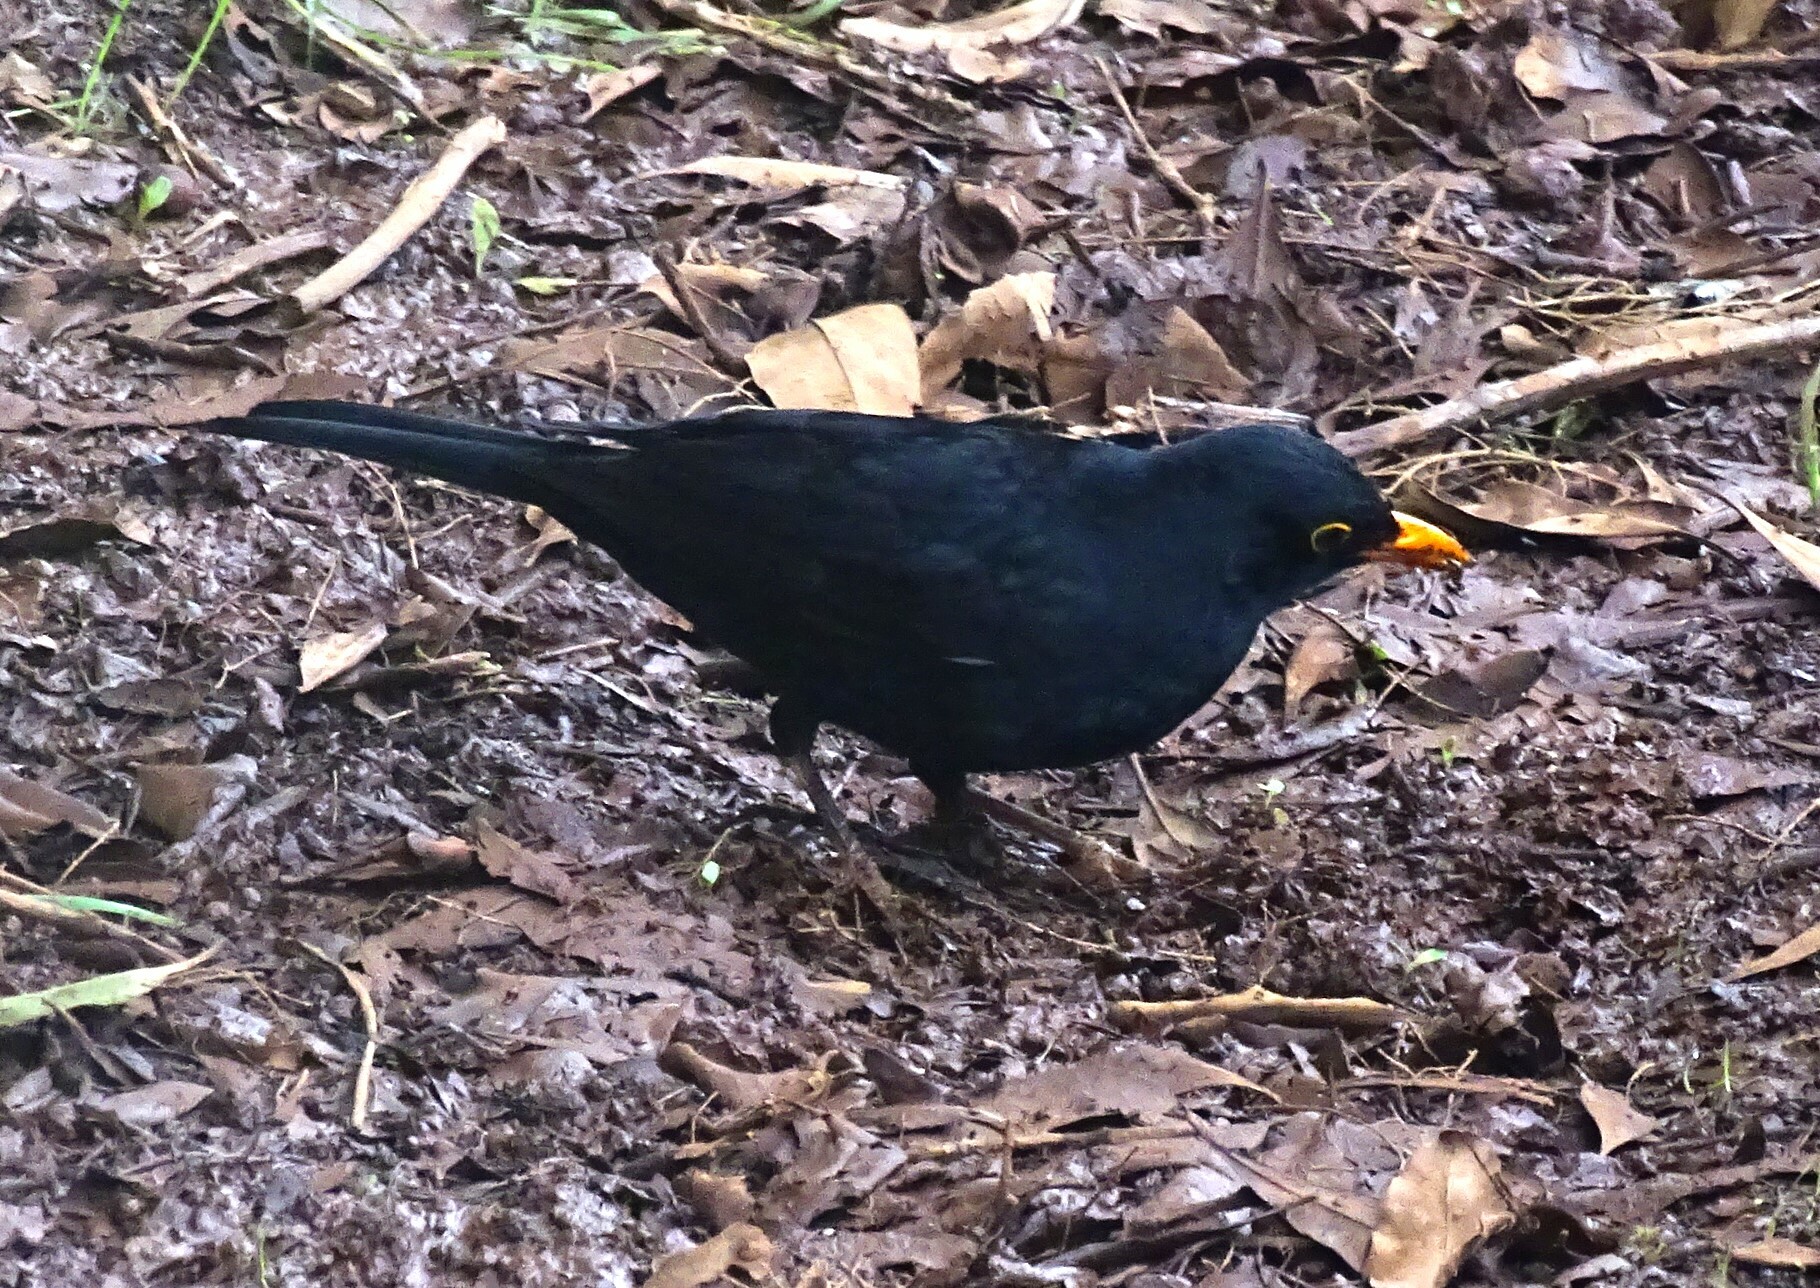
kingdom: Animalia
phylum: Chordata
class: Aves
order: Passeriformes
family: Turdidae
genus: Turdus
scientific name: Turdus merula
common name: Common blackbird
